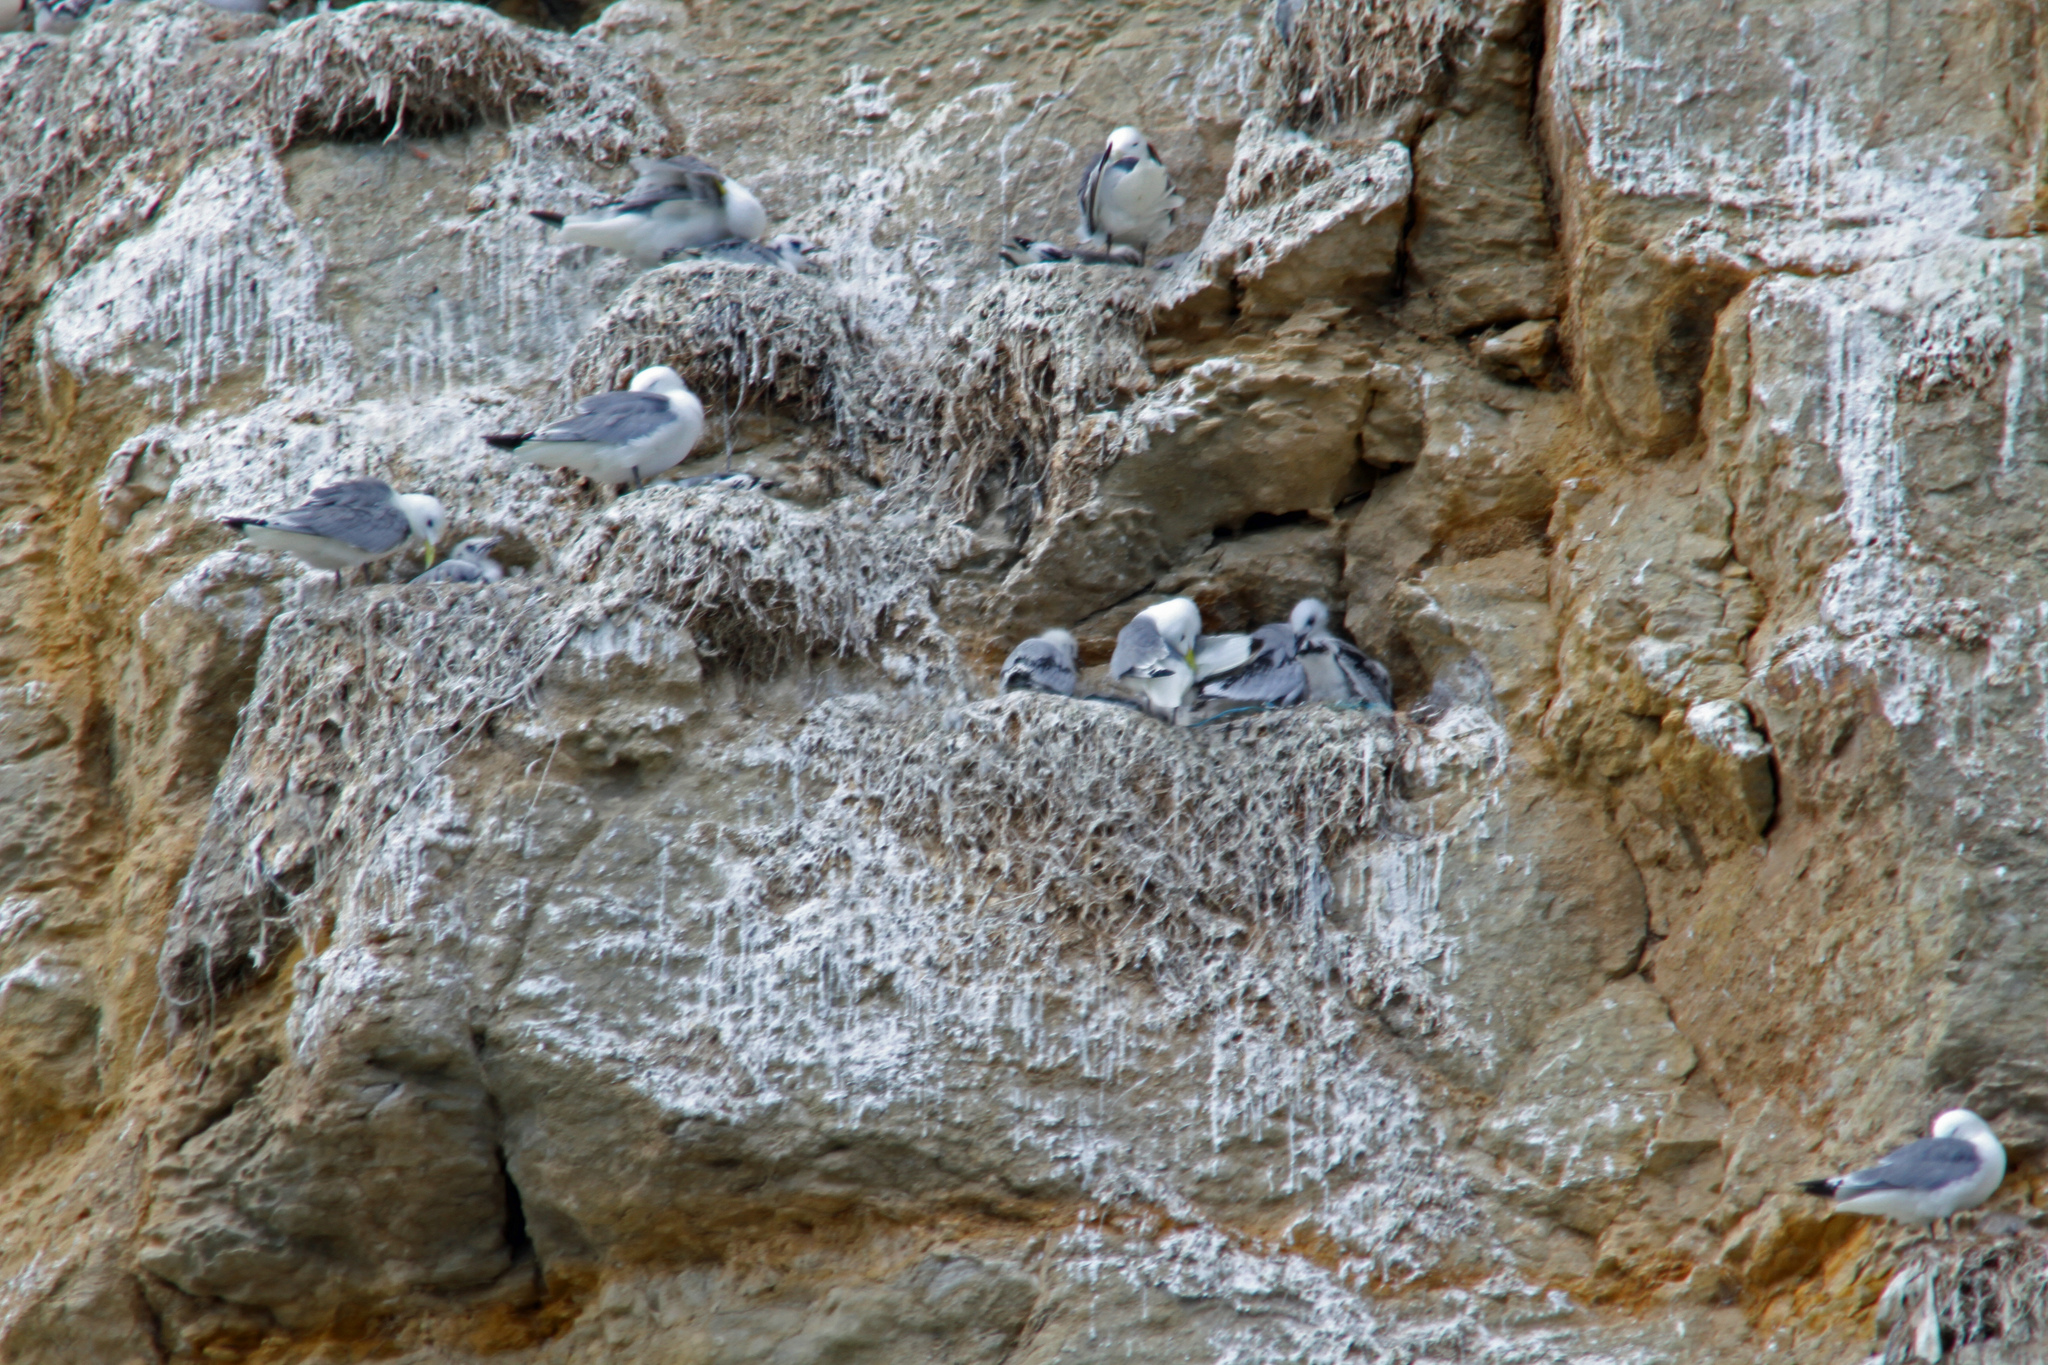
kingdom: Animalia
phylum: Chordata
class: Aves
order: Charadriiformes
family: Laridae
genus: Rissa
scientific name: Rissa tridactyla
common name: Black-legged kittiwake
